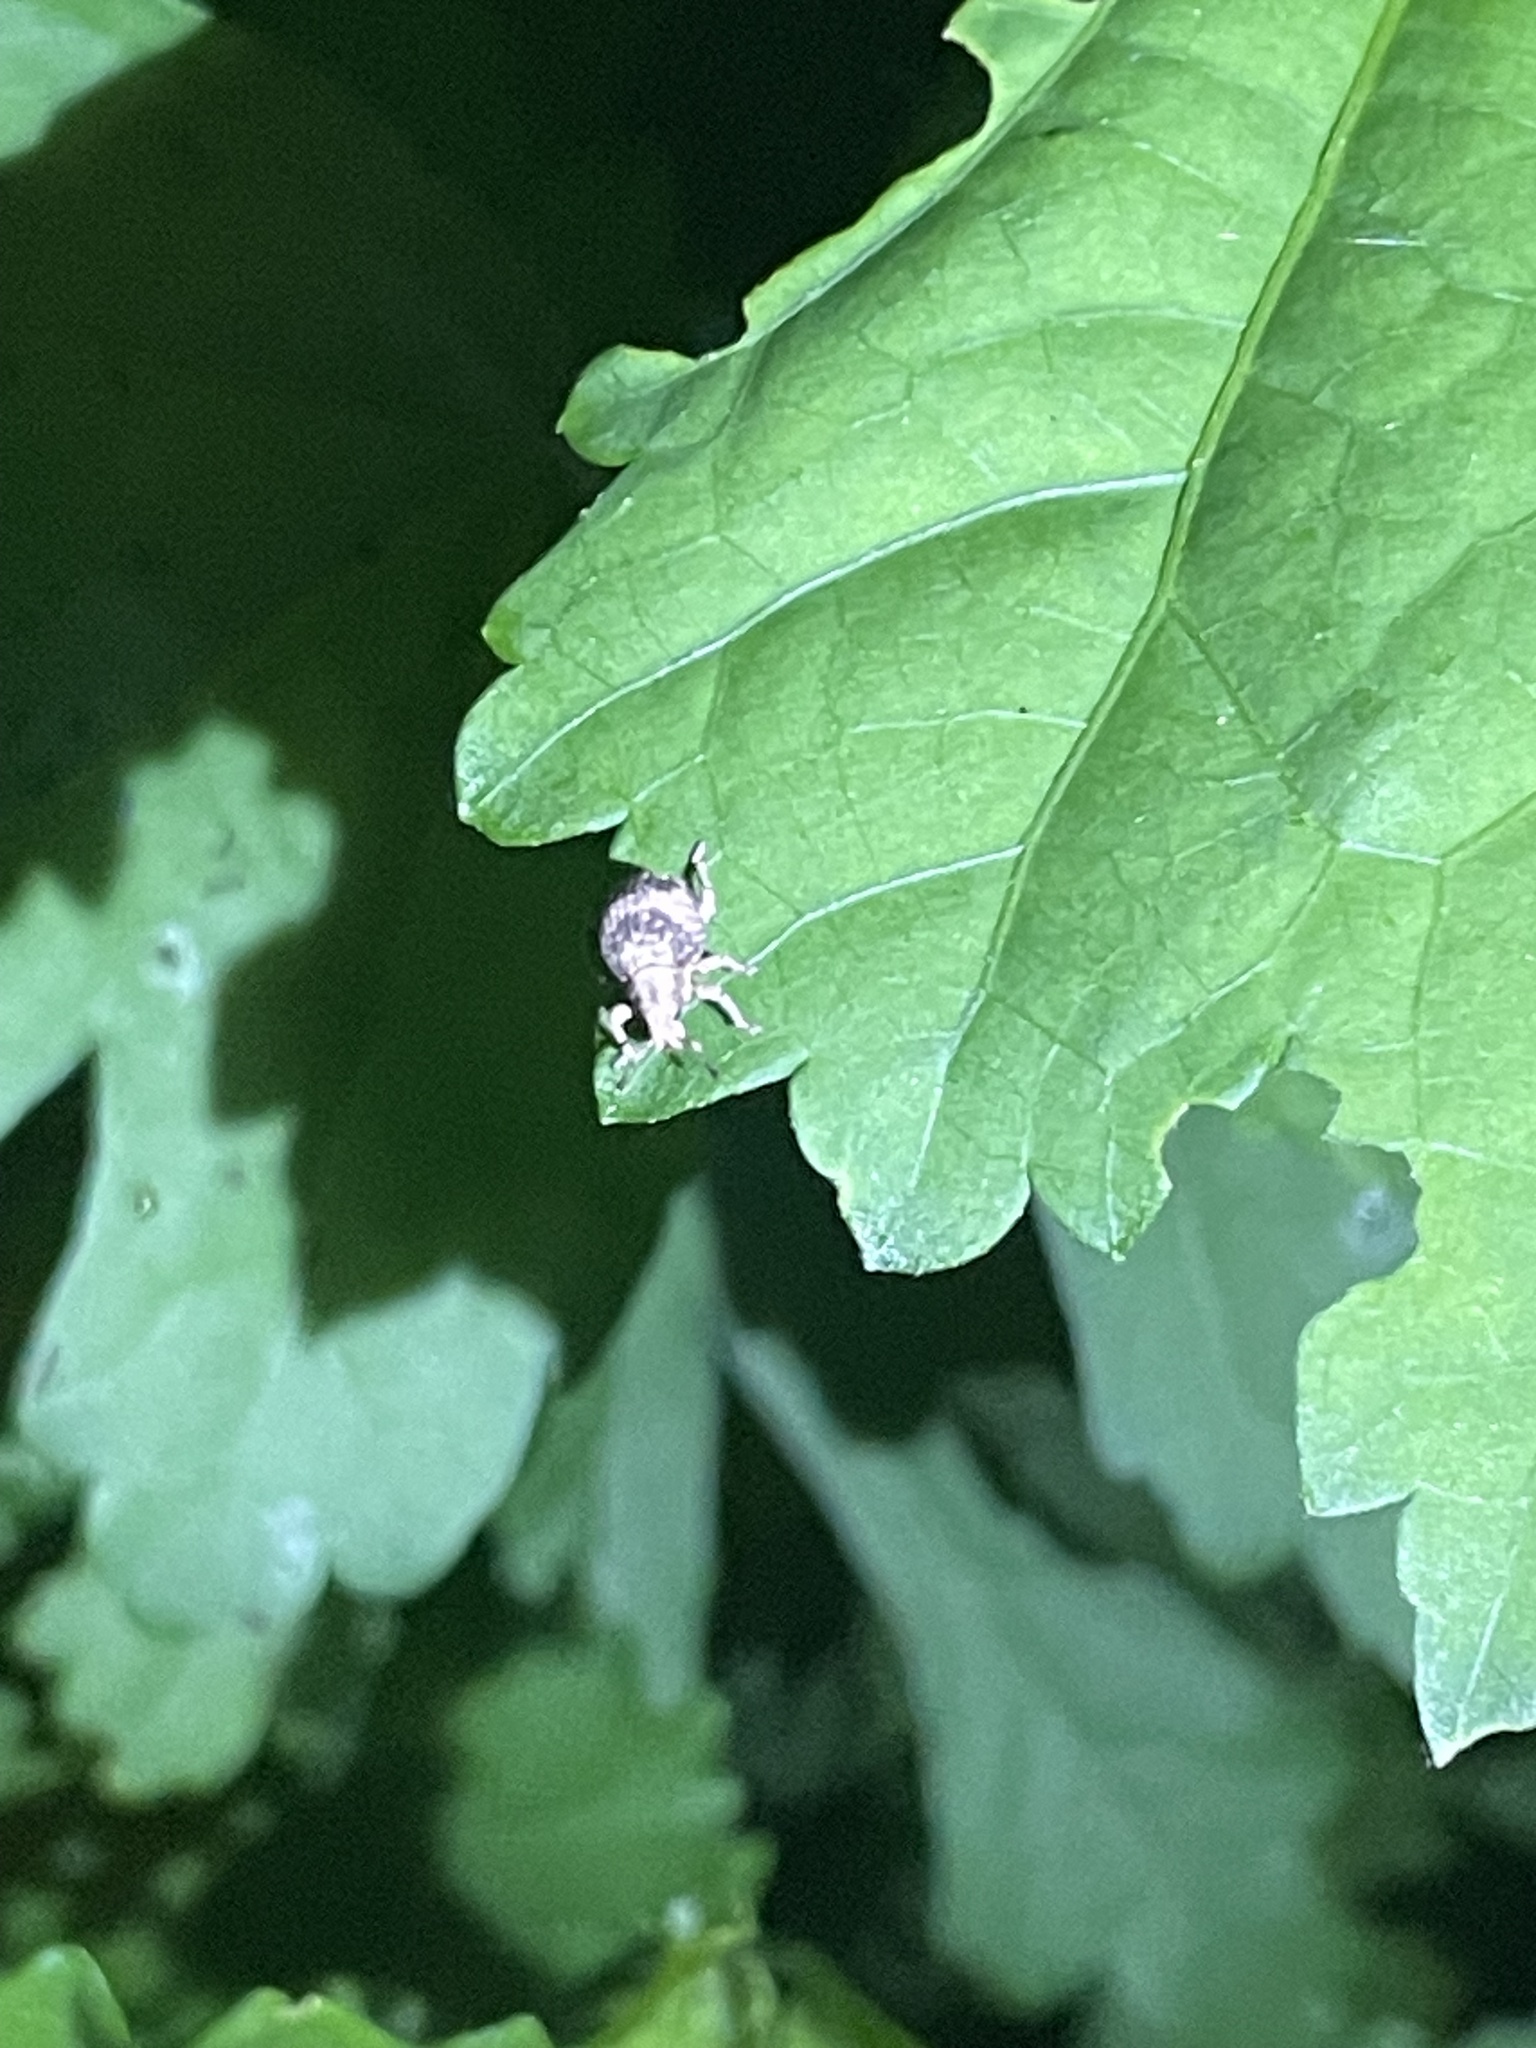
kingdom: Animalia
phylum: Arthropoda
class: Insecta
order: Coleoptera
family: Curculionidae
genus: Pseudocneorhinus
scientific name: Pseudocneorhinus bifasciatus
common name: Two-banded japanese weevil
